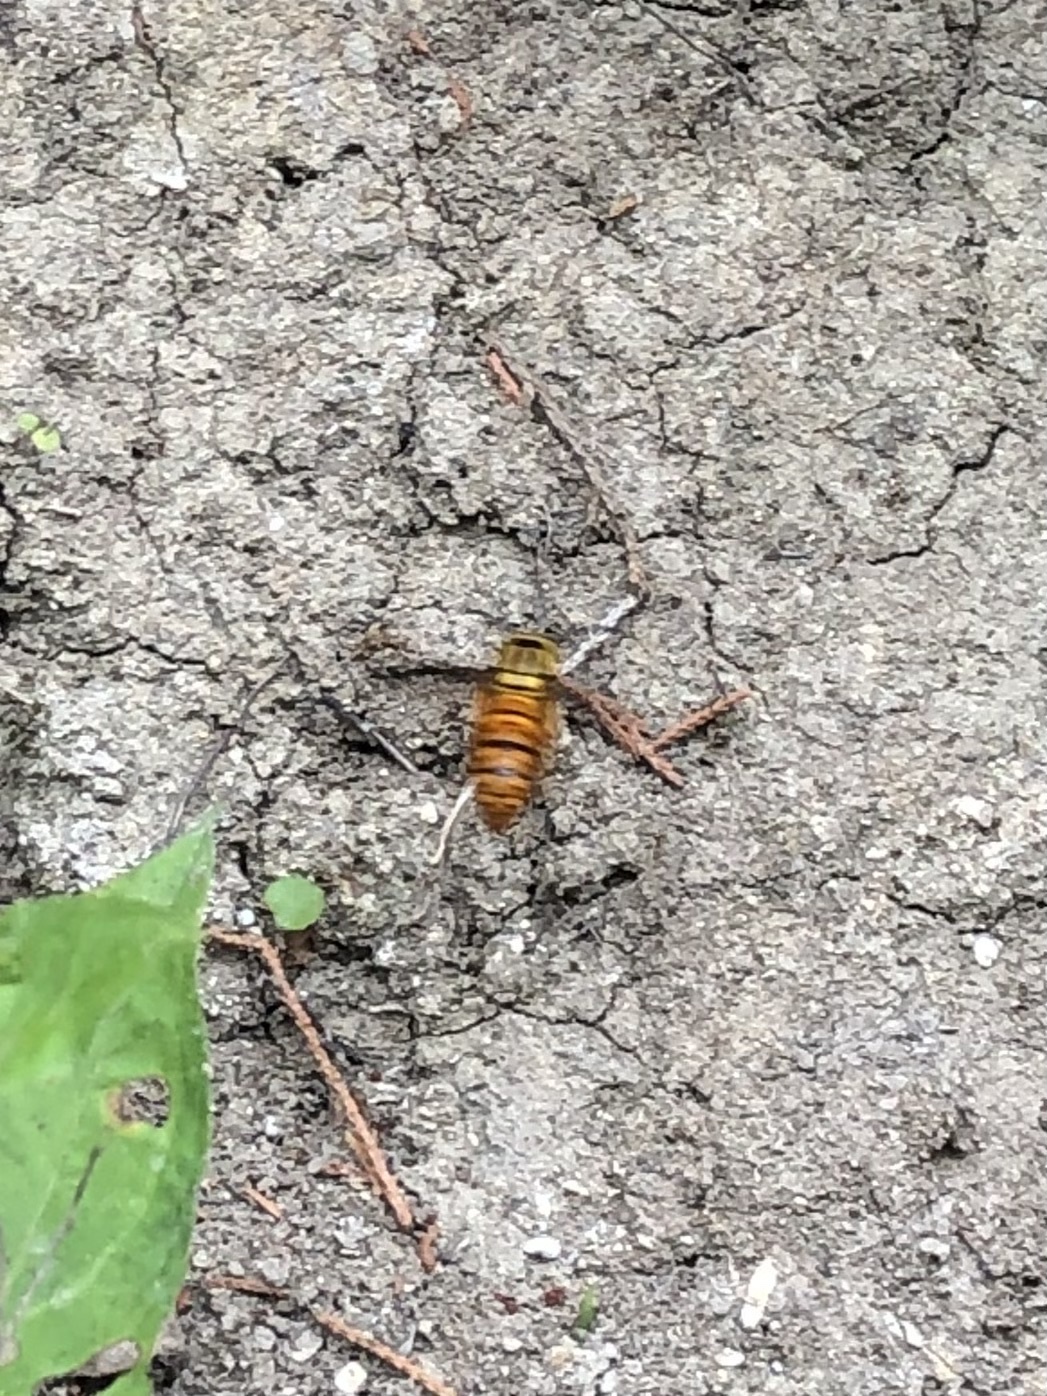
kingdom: Animalia
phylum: Arthropoda
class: Insecta
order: Hymenoptera
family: Vespidae
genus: Vespula
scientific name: Vespula squamosa
